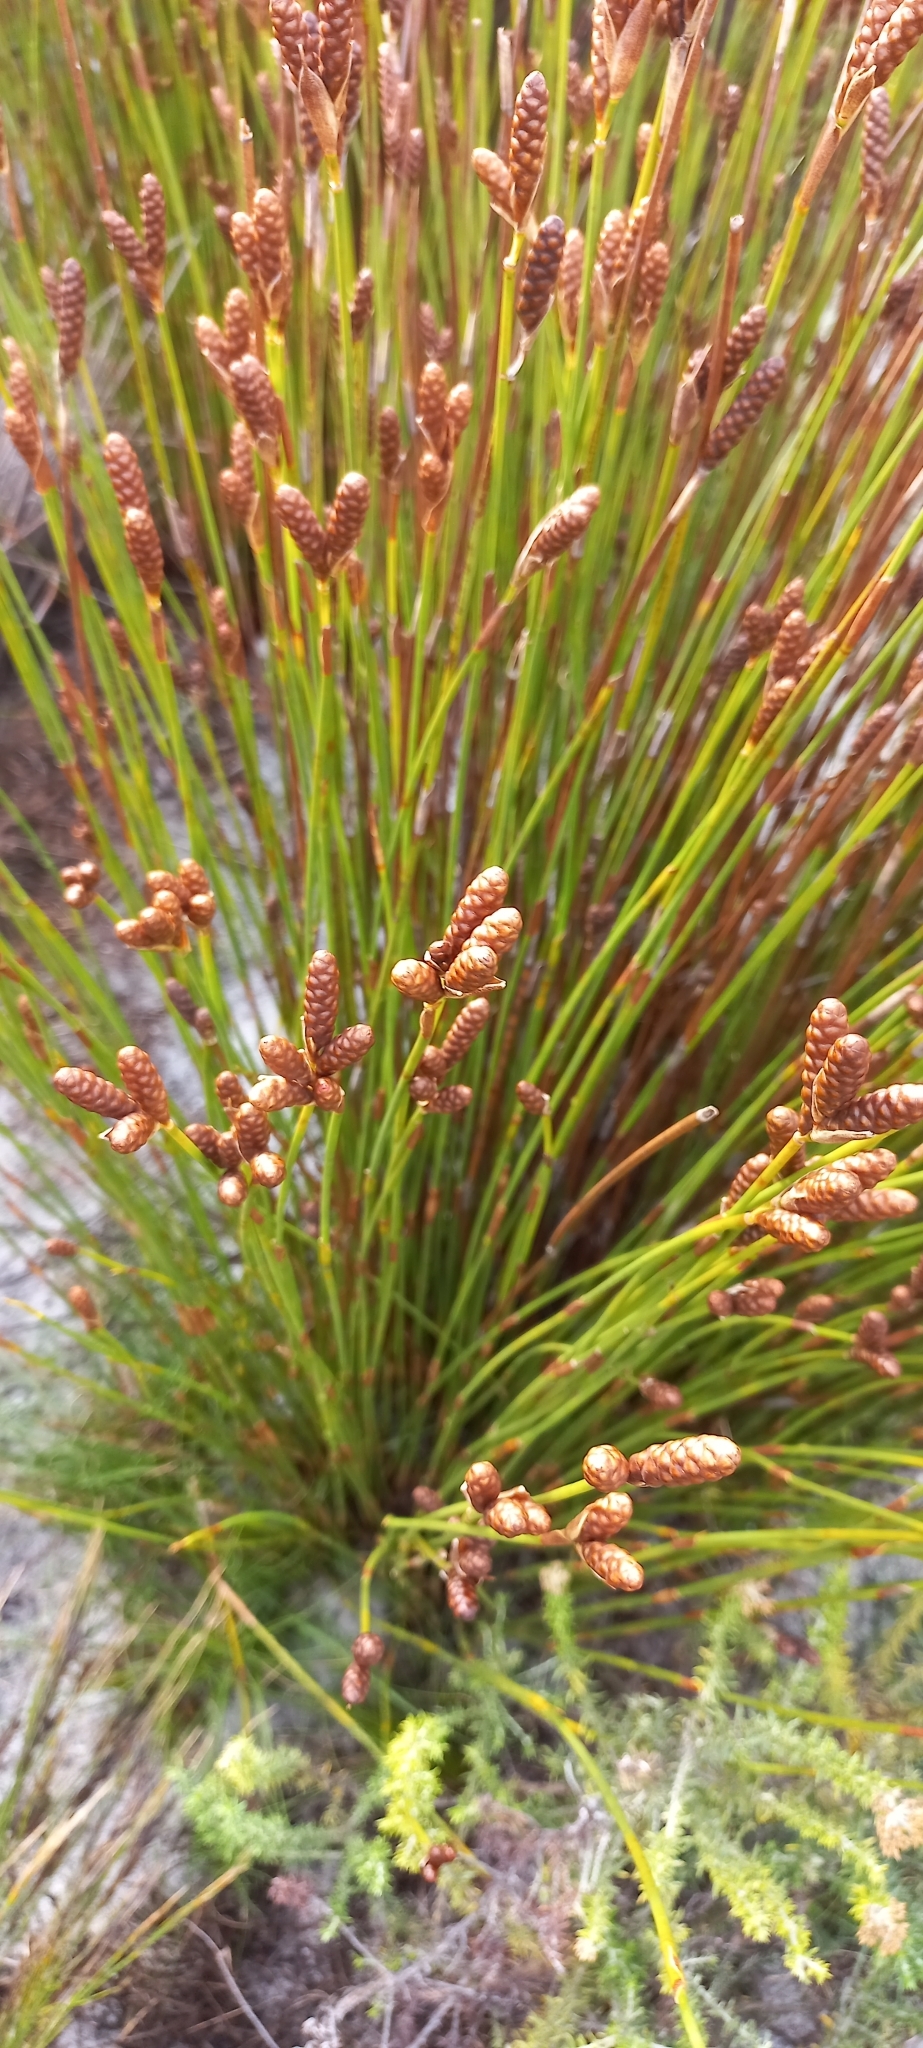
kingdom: Plantae
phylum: Tracheophyta
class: Liliopsida
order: Poales
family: Restionaceae
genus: Nevillea
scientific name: Nevillea obtusissimus
